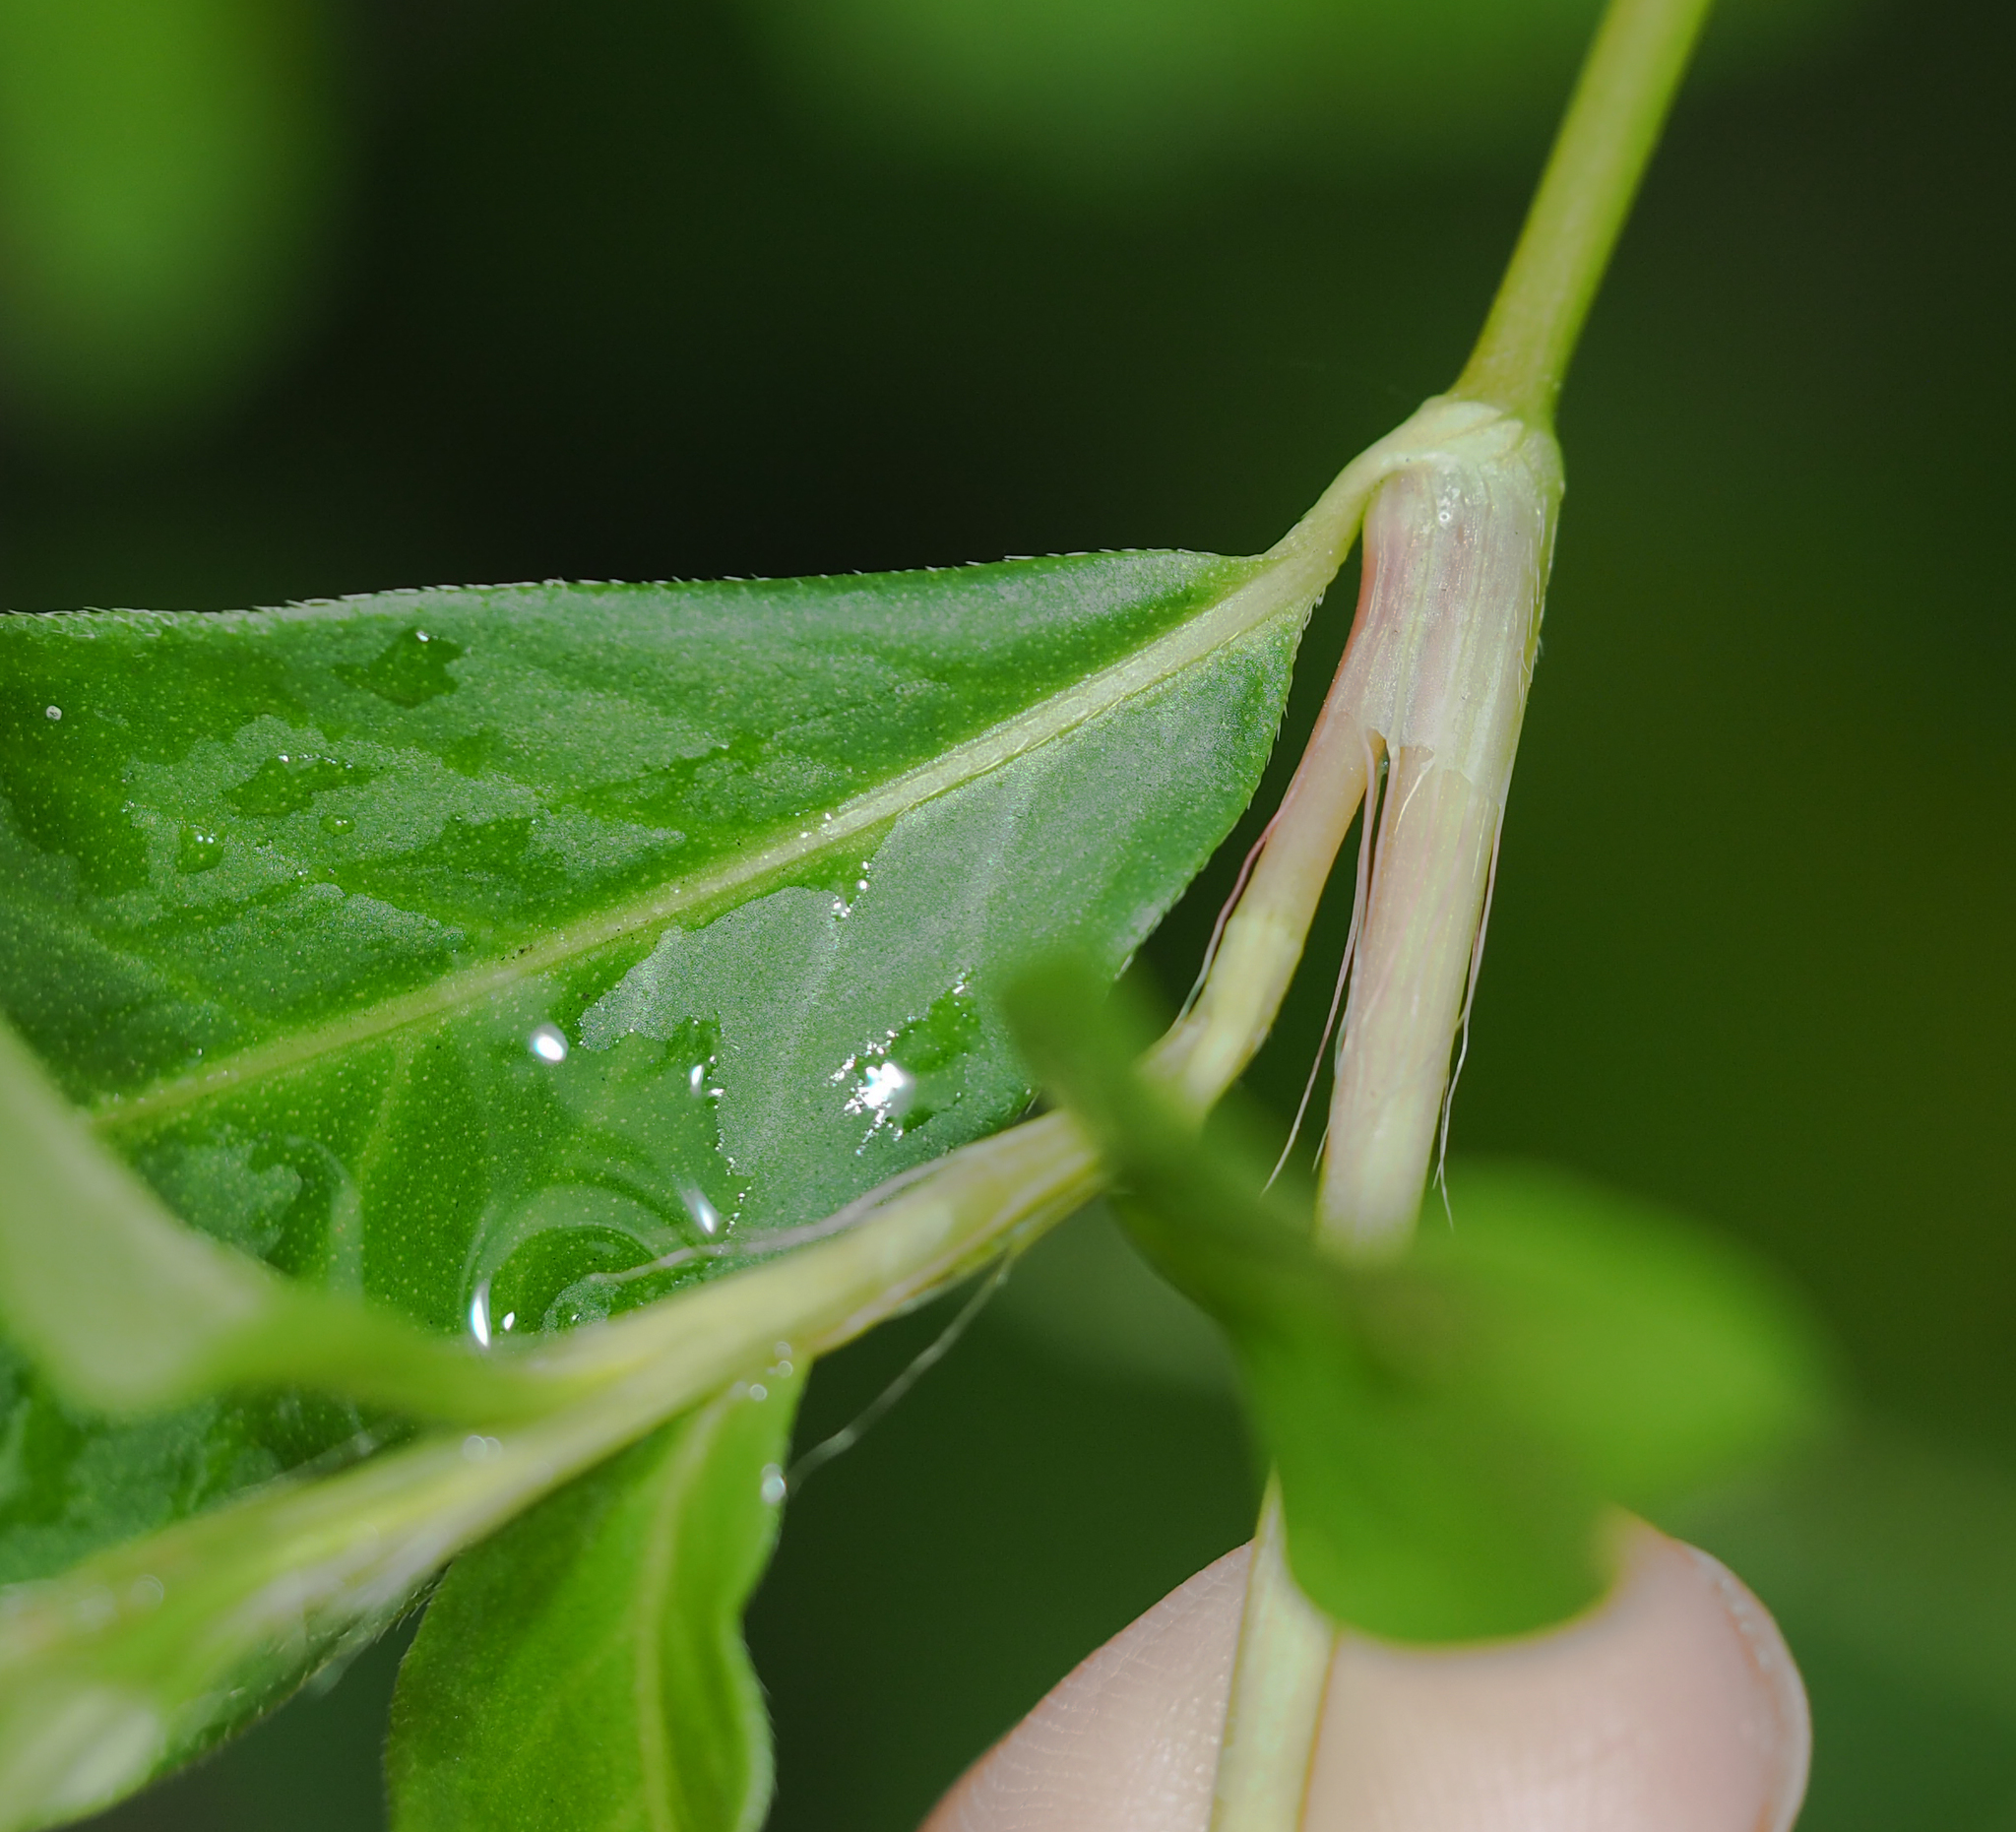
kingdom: Plantae
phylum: Tracheophyta
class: Magnoliopsida
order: Caryophyllales
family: Polygonaceae
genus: Persicaria
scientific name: Persicaria longiseta
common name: Bristly lady's-thumb
